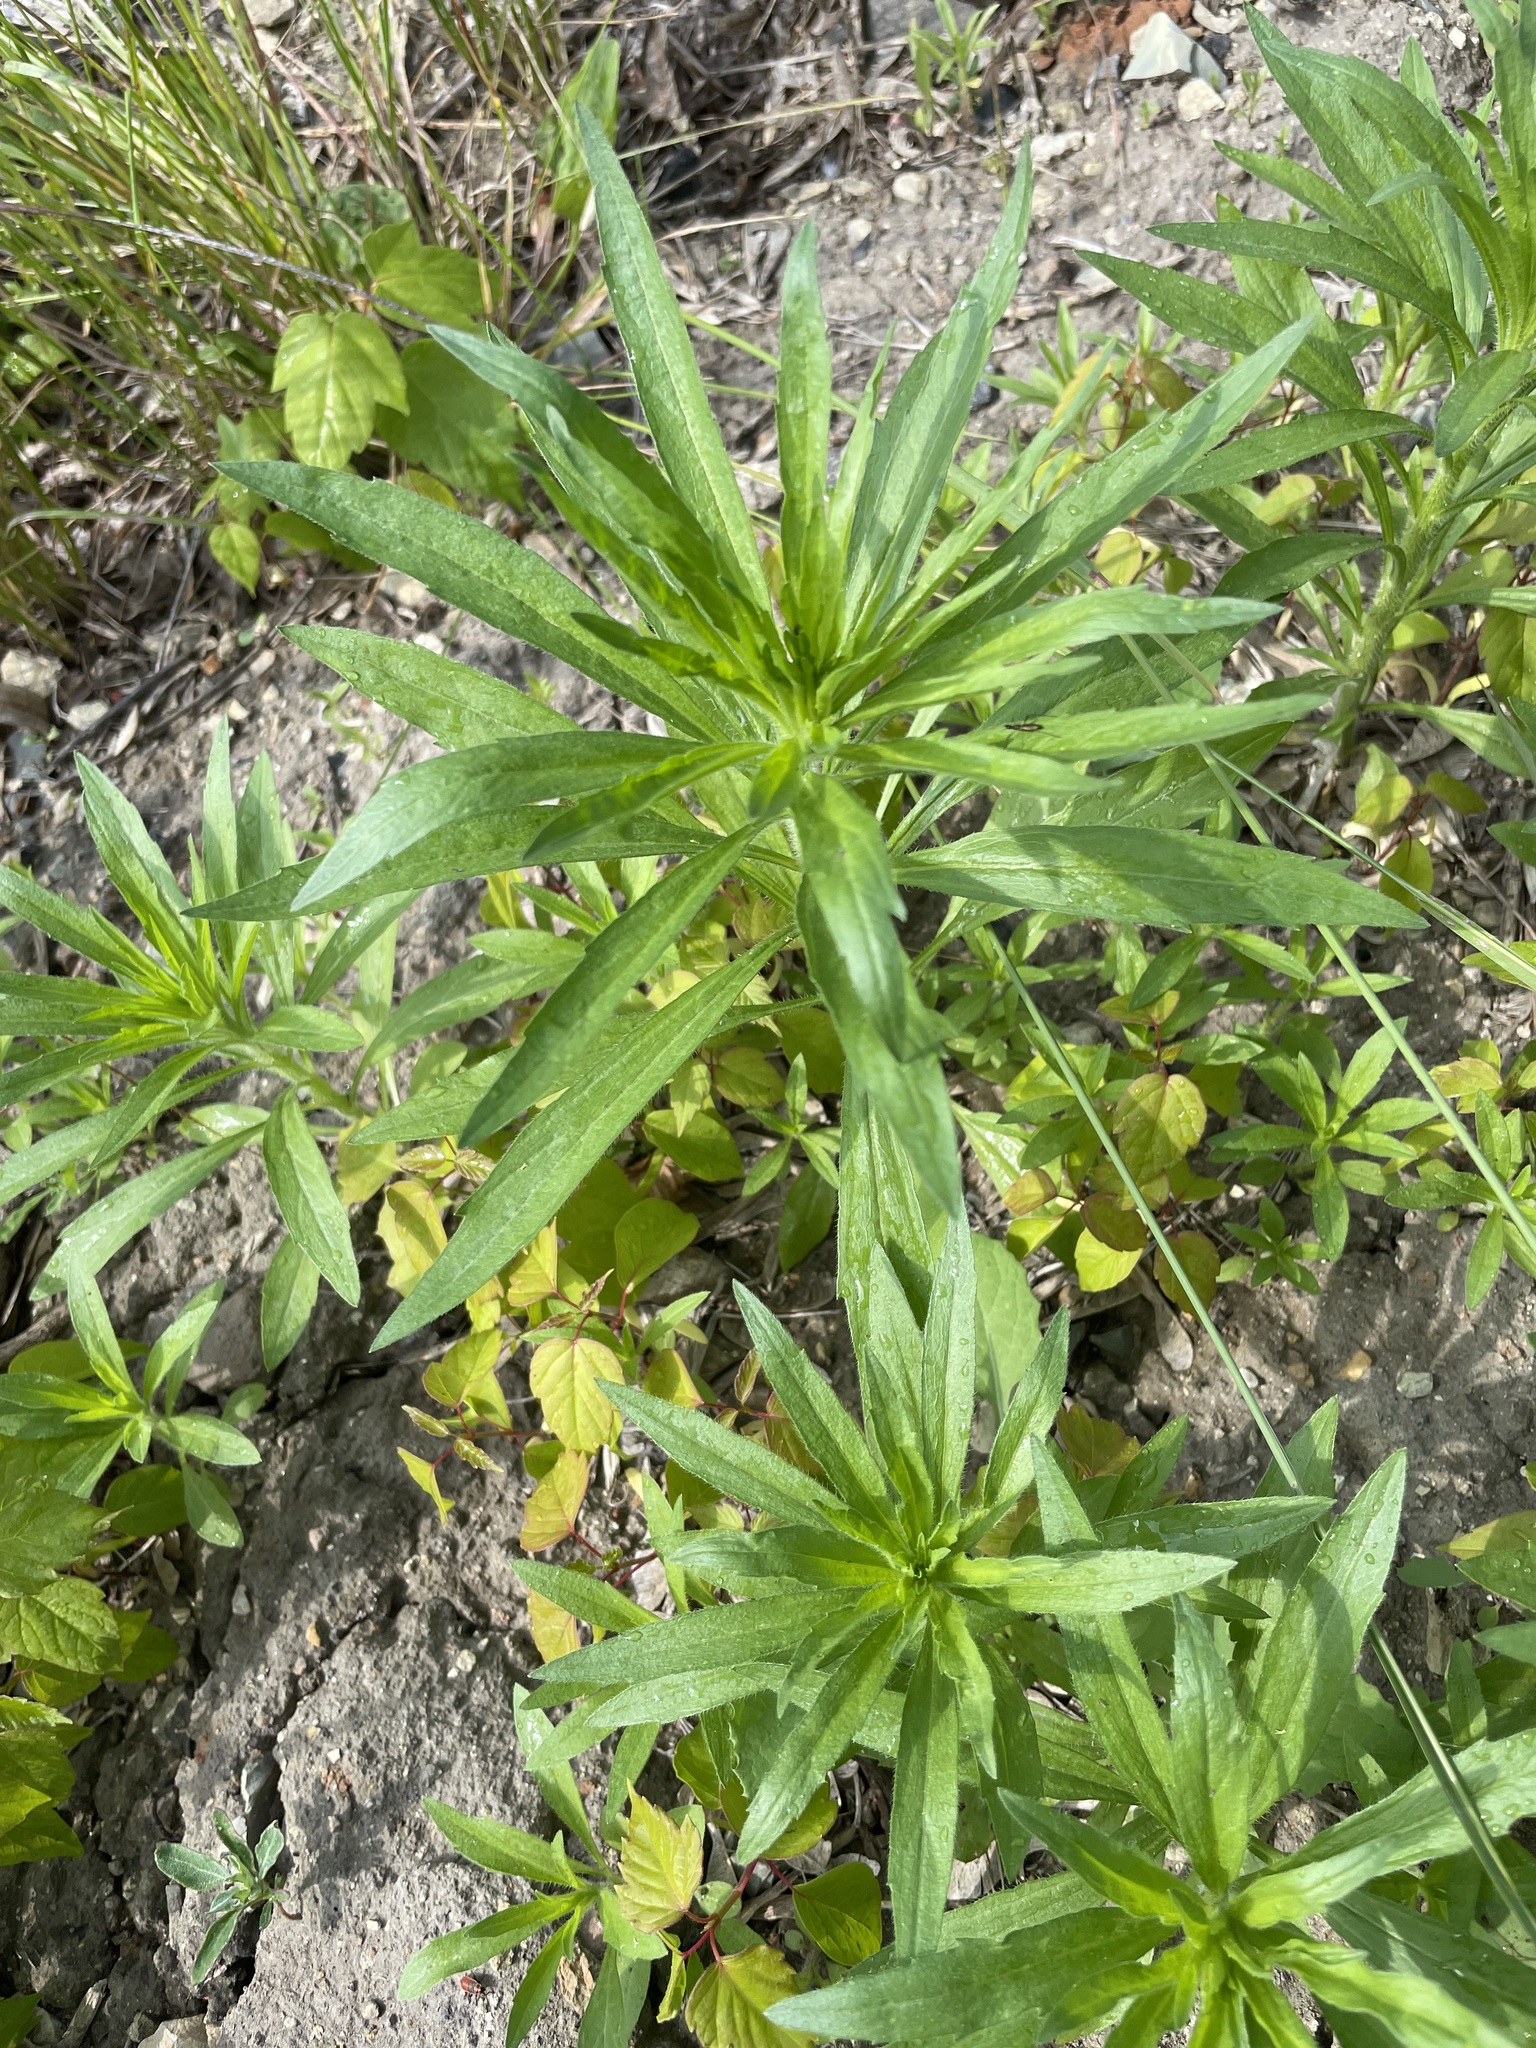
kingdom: Plantae
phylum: Tracheophyta
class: Magnoliopsida
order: Asterales
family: Asteraceae
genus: Erigeron
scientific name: Erigeron canadensis
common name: Canadian fleabane
